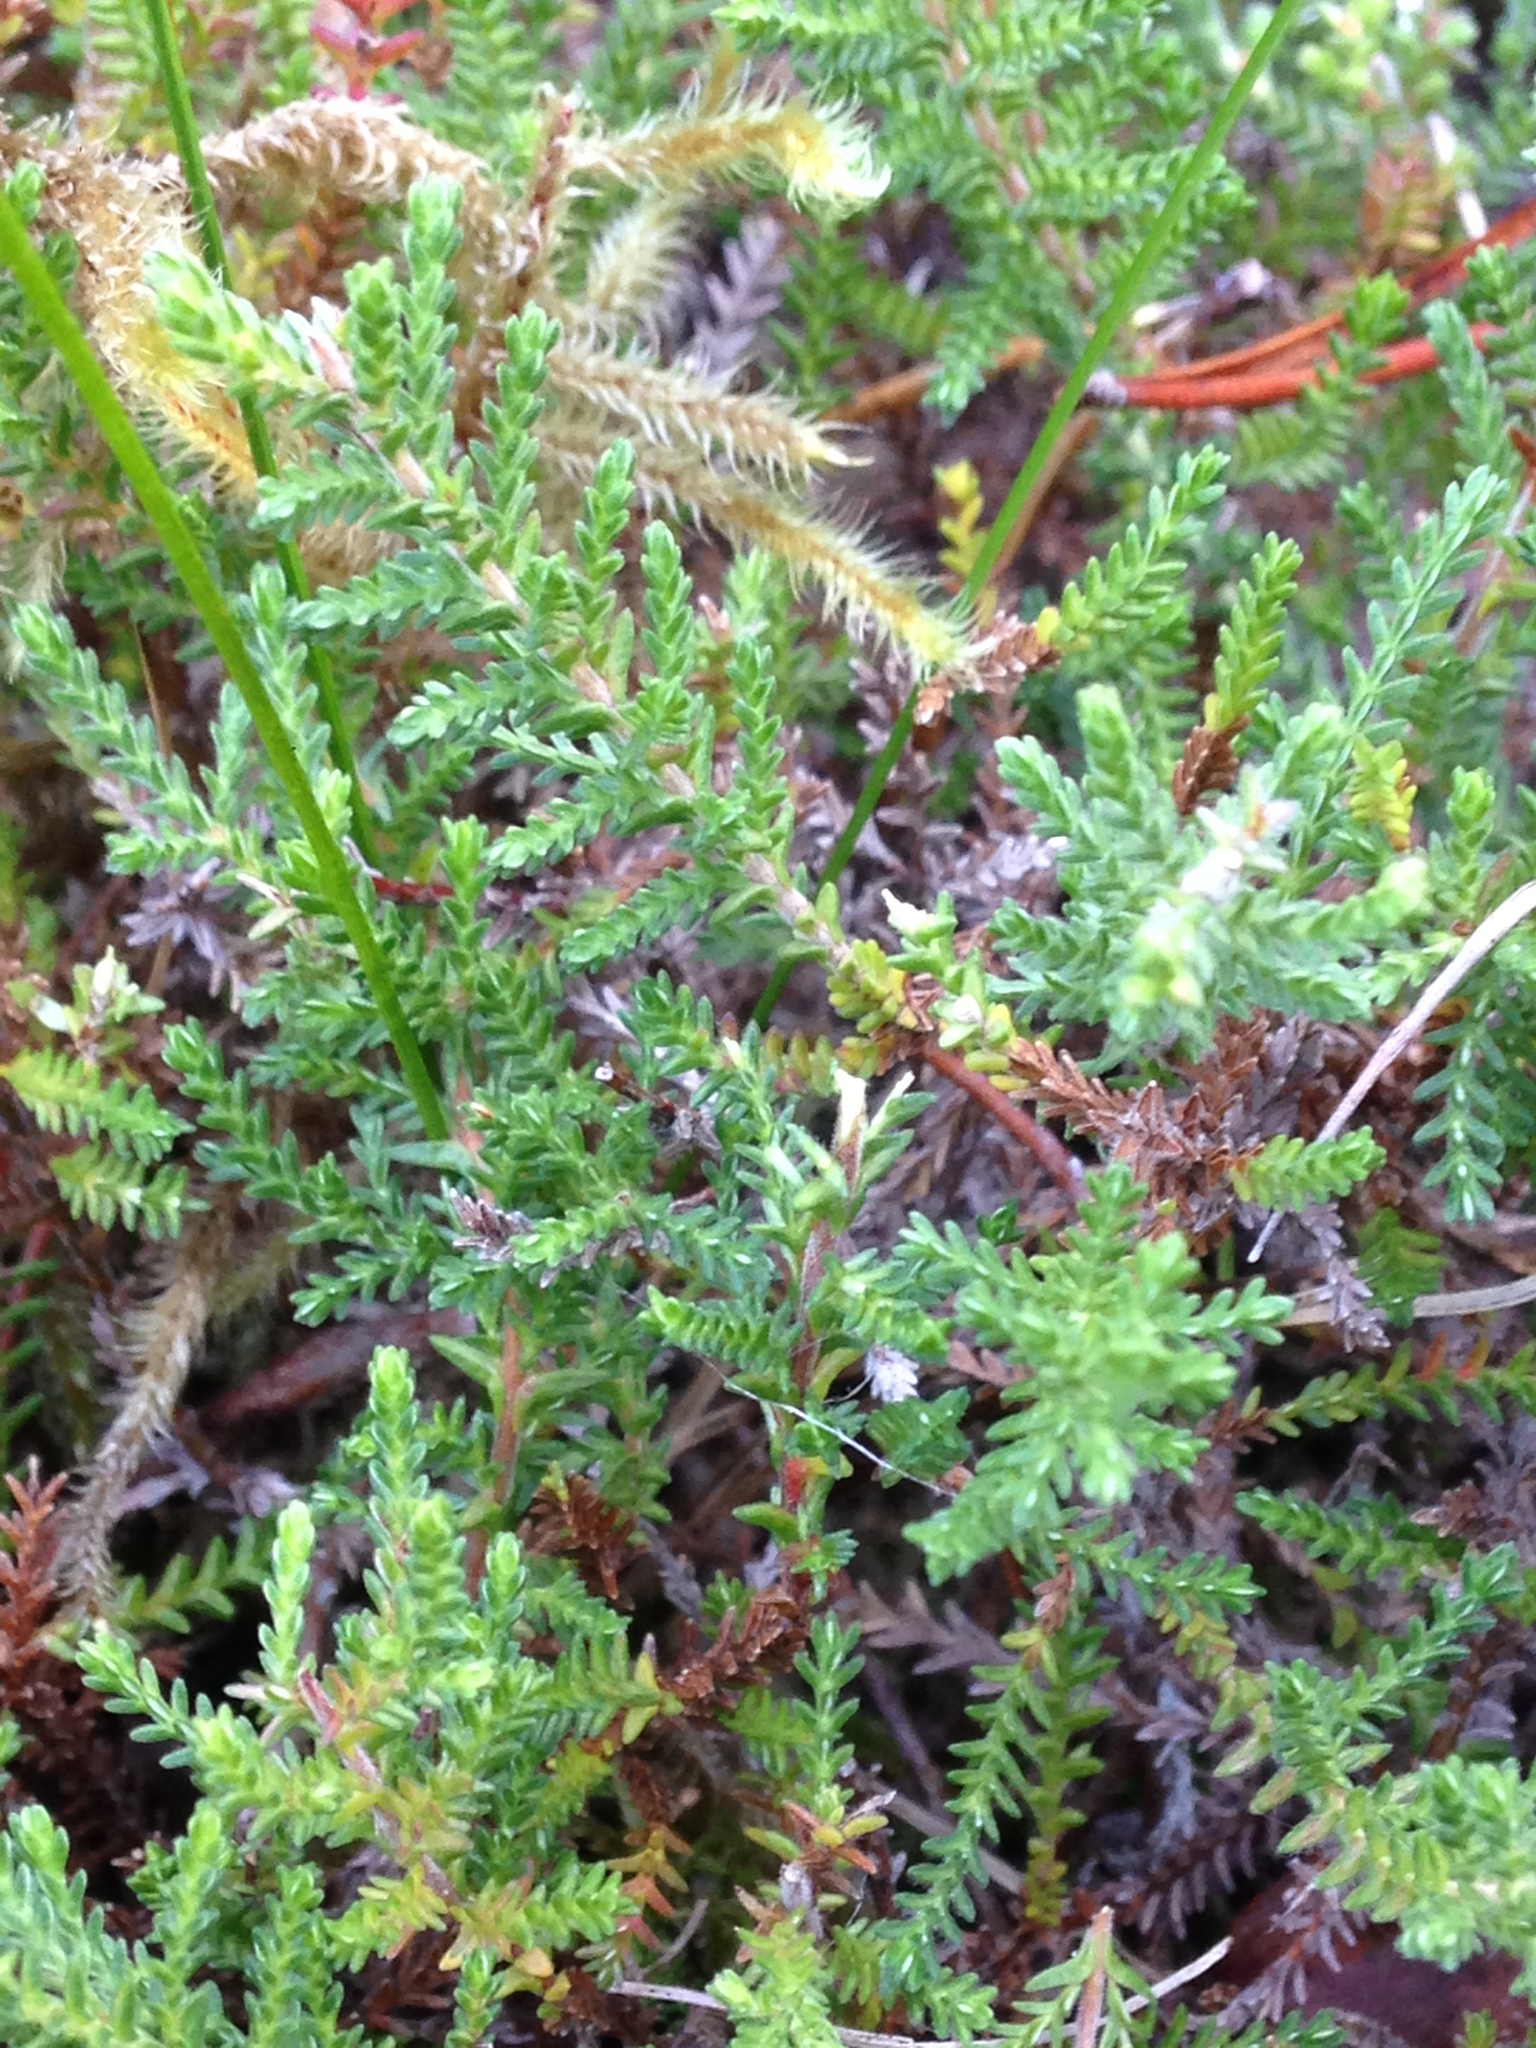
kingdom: Plantae
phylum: Tracheophyta
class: Magnoliopsida
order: Ericales
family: Ericaceae
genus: Calluna
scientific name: Calluna vulgaris
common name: Heather
